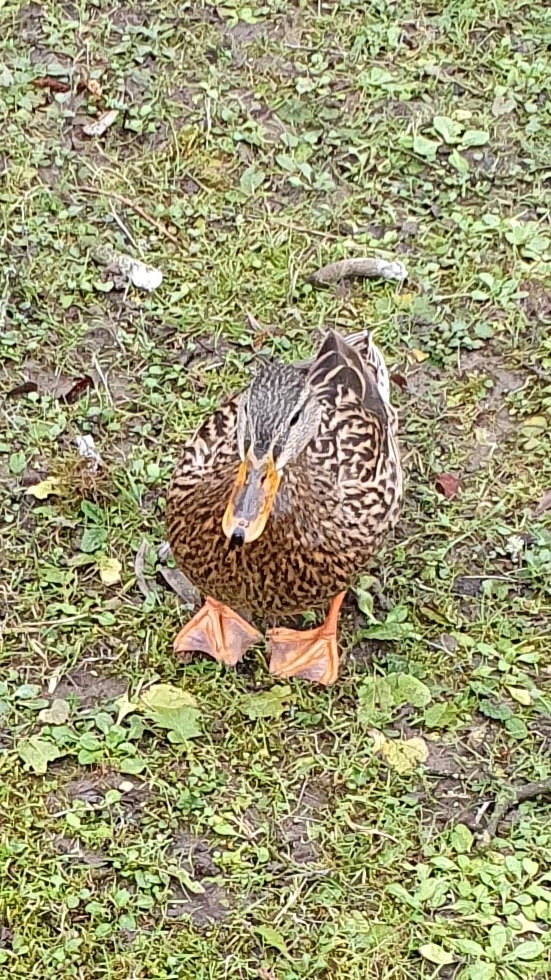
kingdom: Animalia
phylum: Chordata
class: Aves
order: Anseriformes
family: Anatidae
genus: Anas
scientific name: Anas platyrhynchos
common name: Mallard
